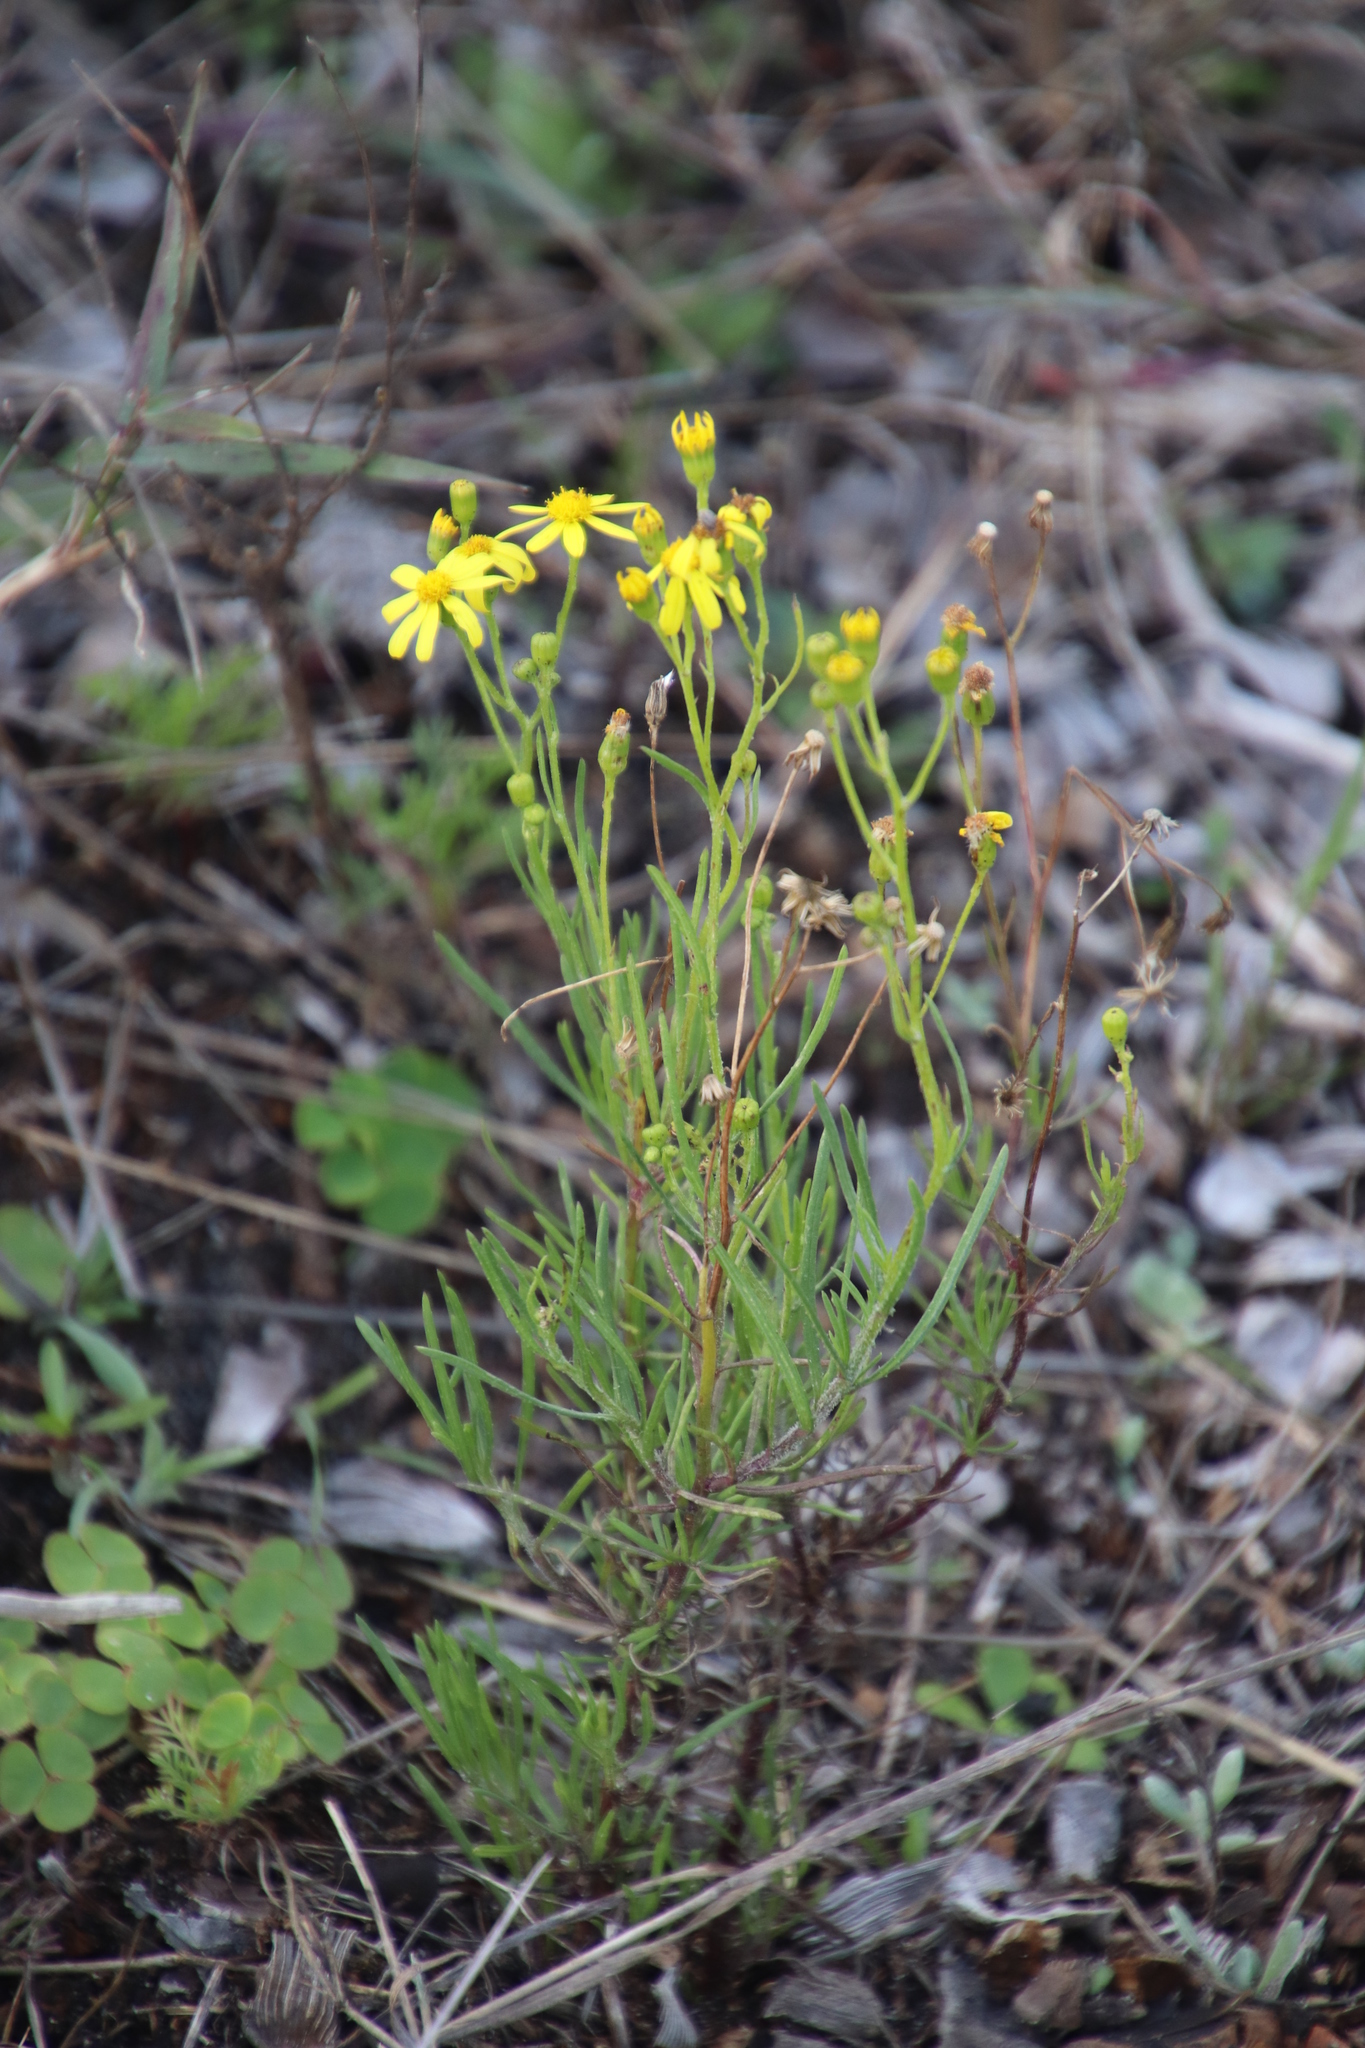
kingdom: Plantae
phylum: Tracheophyta
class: Magnoliopsida
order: Asterales
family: Asteraceae
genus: Senecio
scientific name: Senecio burchellii
